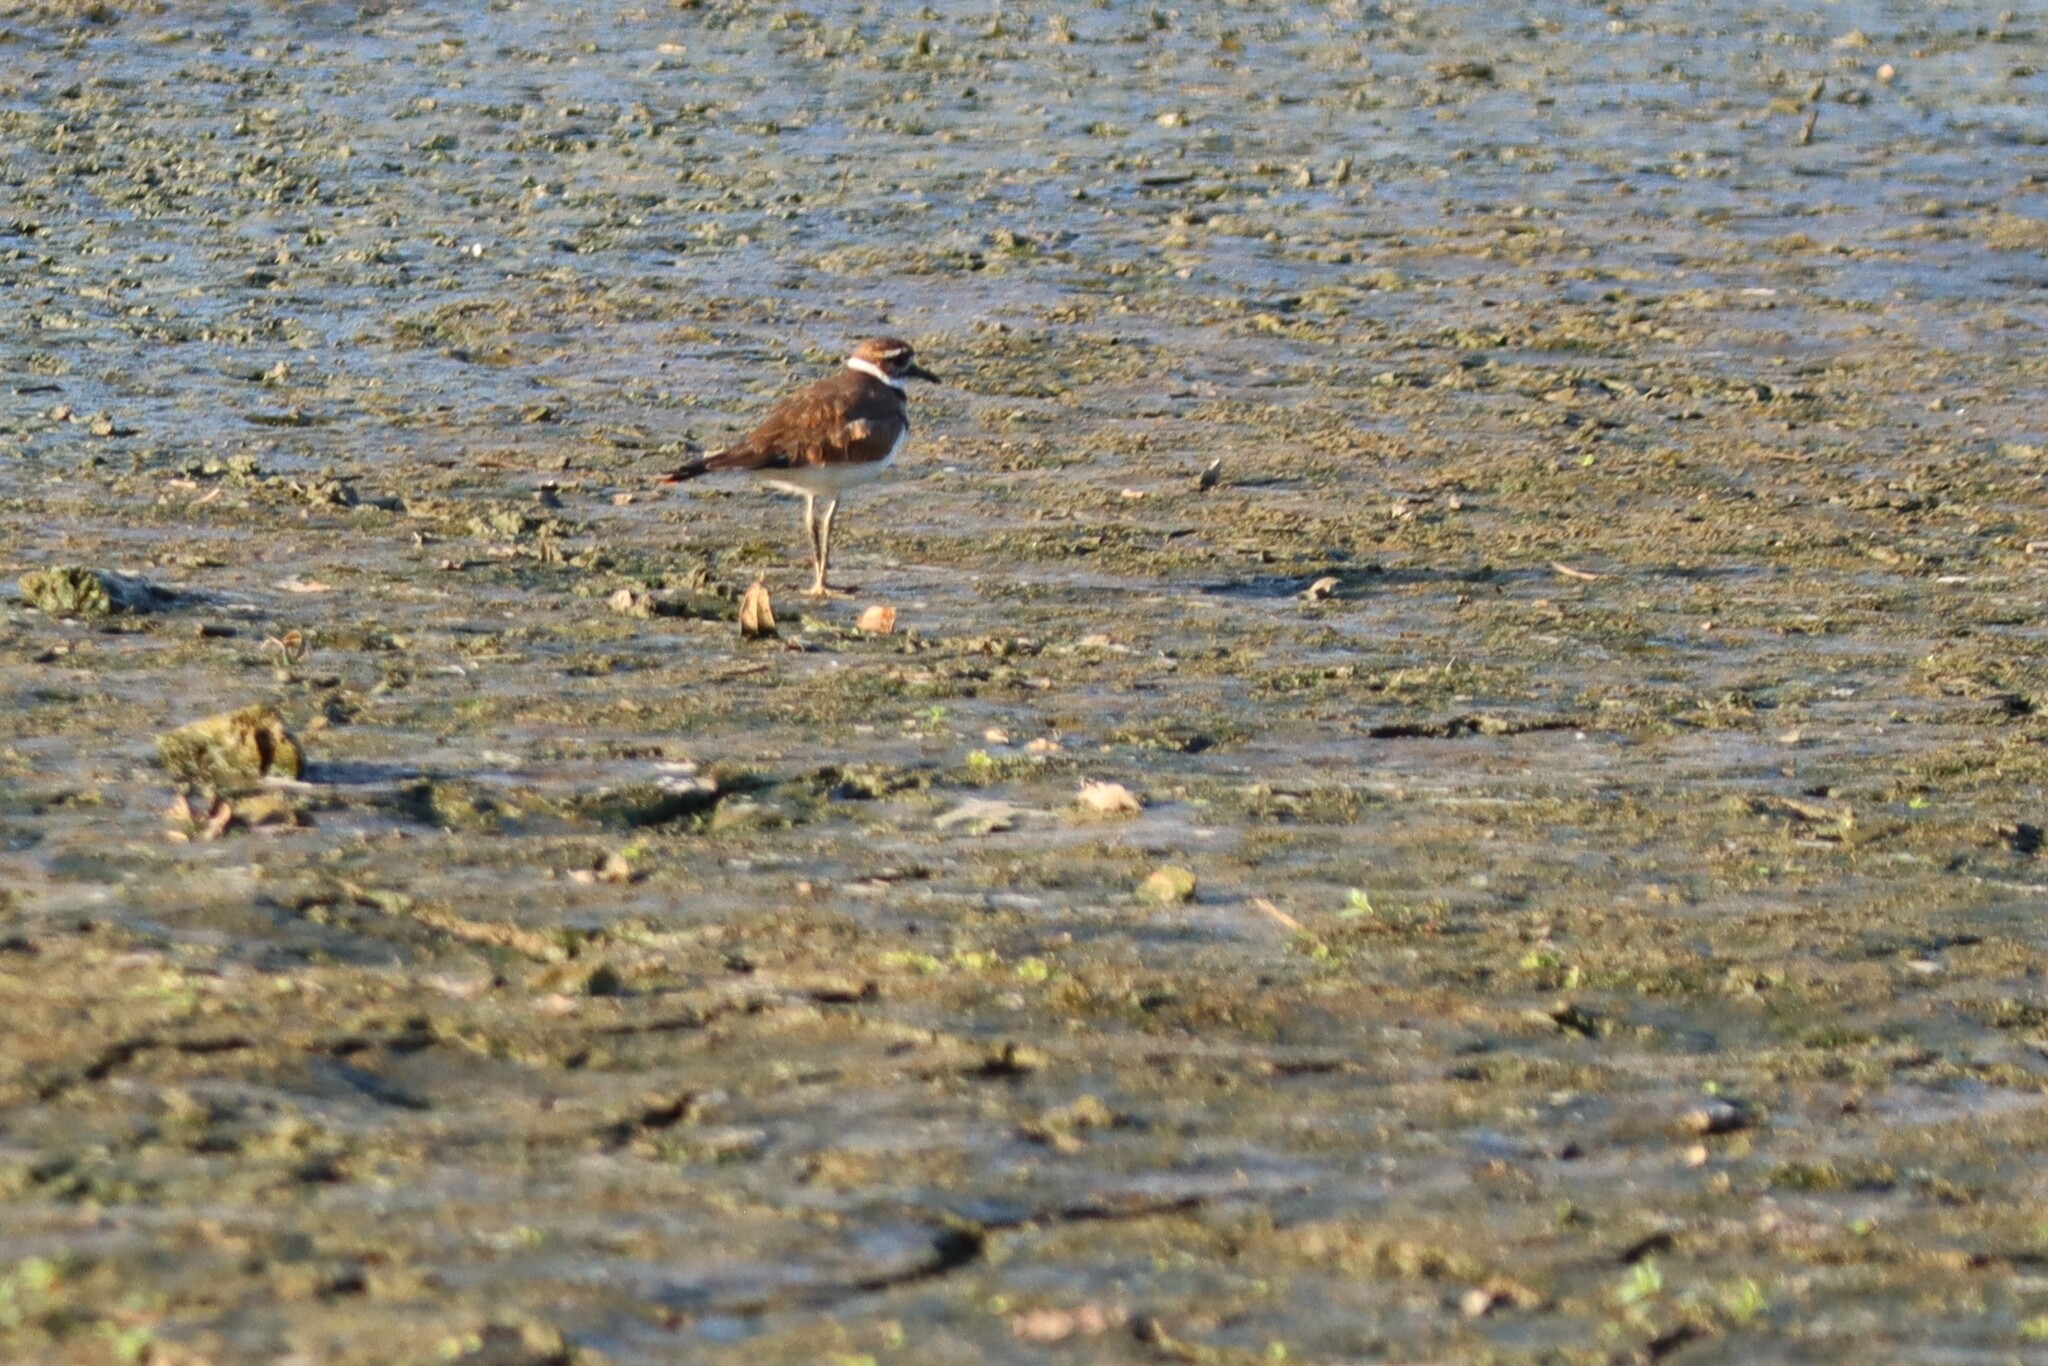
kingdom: Animalia
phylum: Chordata
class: Aves
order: Charadriiformes
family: Charadriidae
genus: Charadrius
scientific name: Charadrius vociferus
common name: Killdeer
